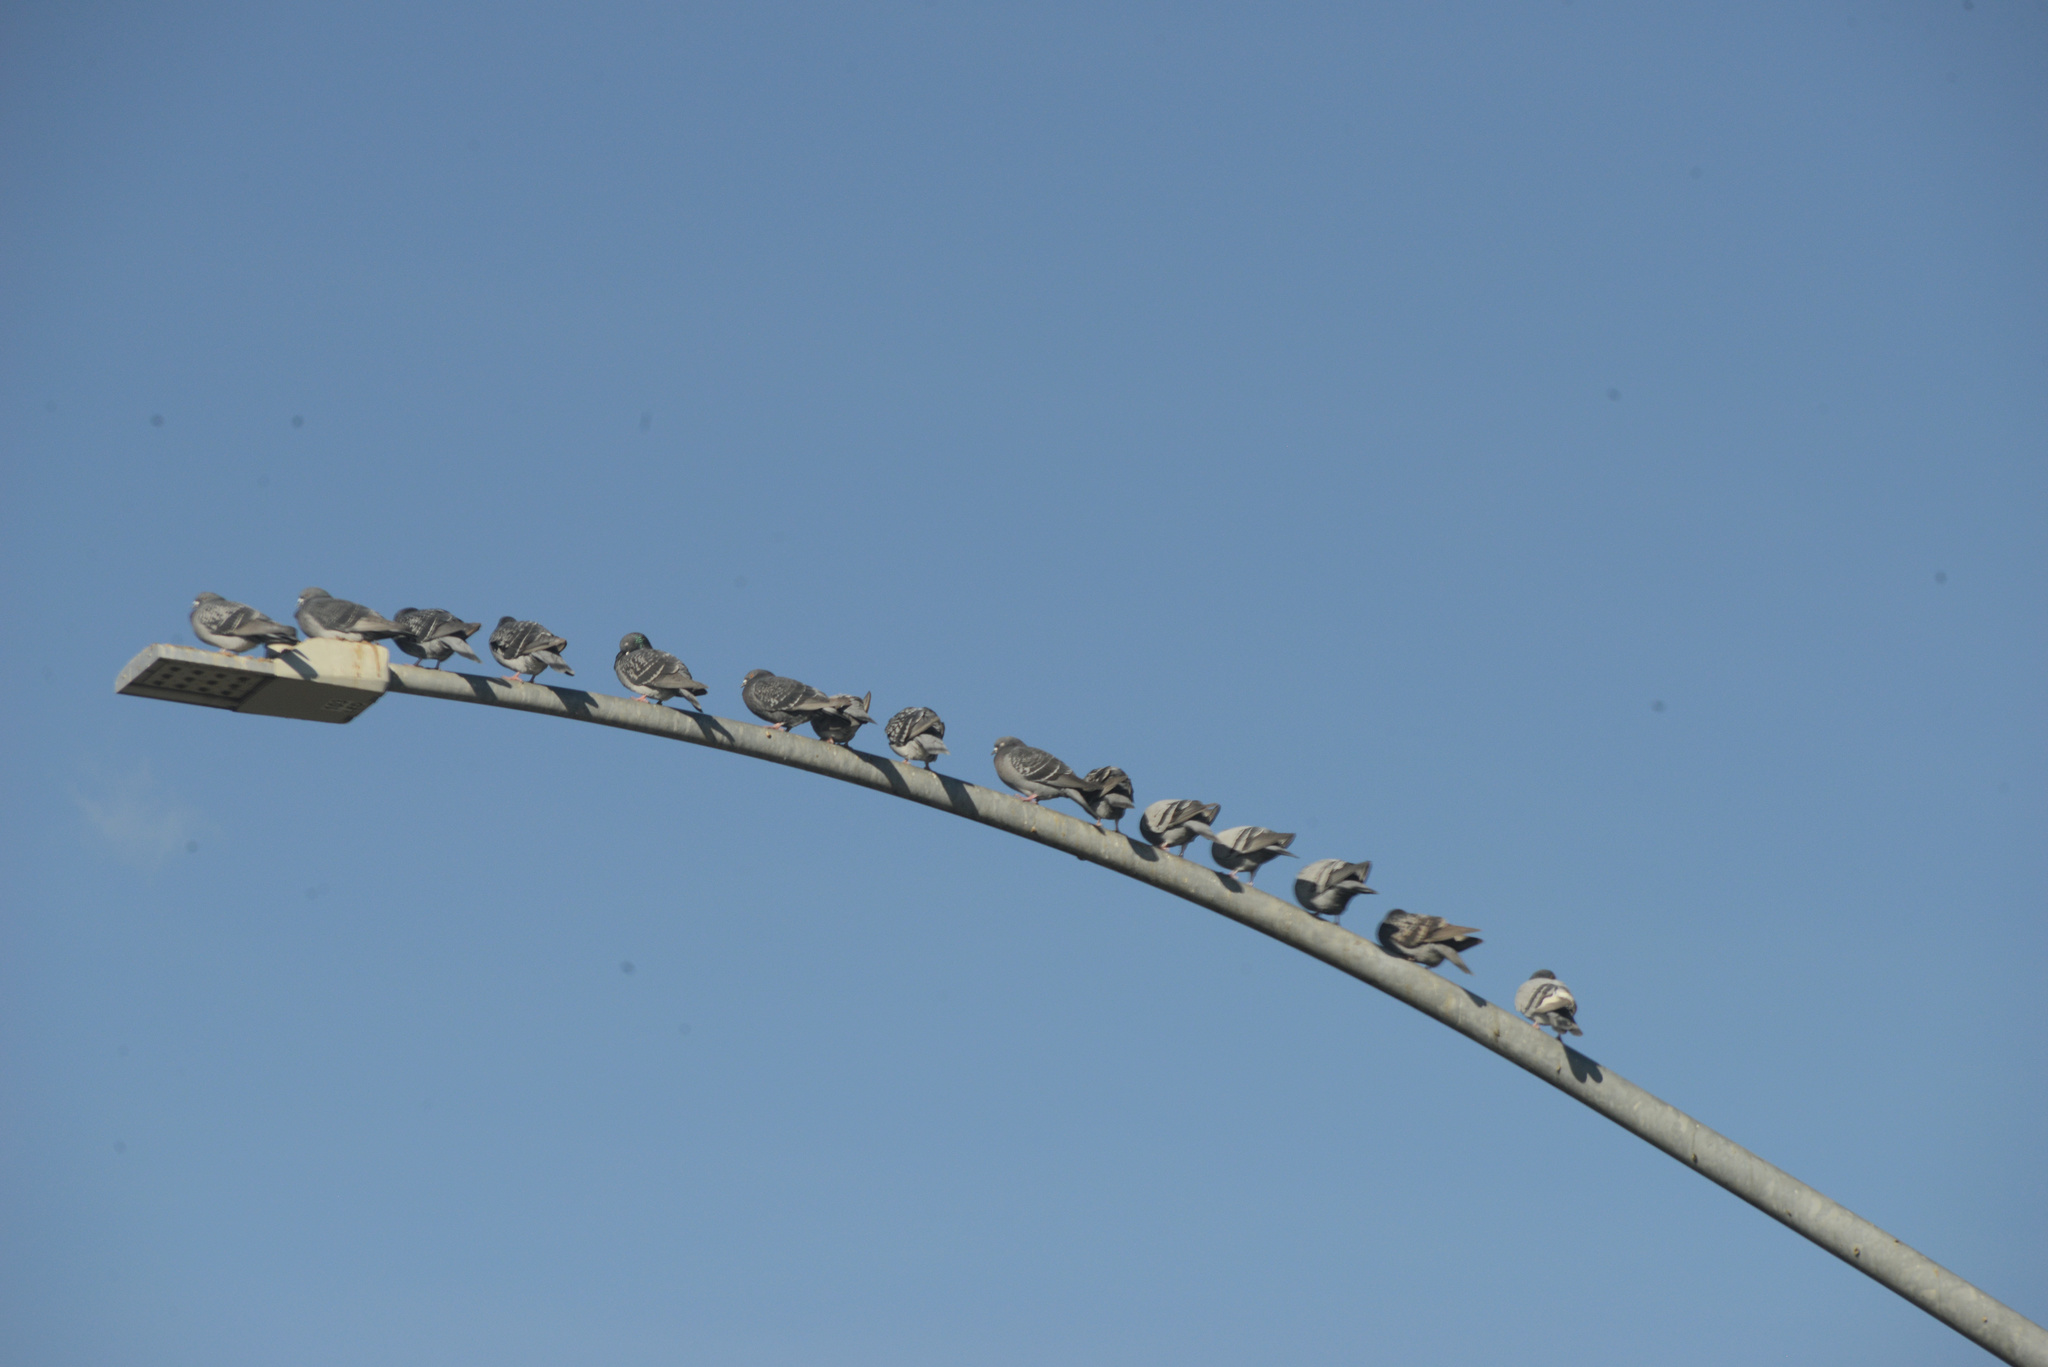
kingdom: Animalia
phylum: Chordata
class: Aves
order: Columbiformes
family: Columbidae
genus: Columba
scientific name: Columba livia
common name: Rock pigeon
